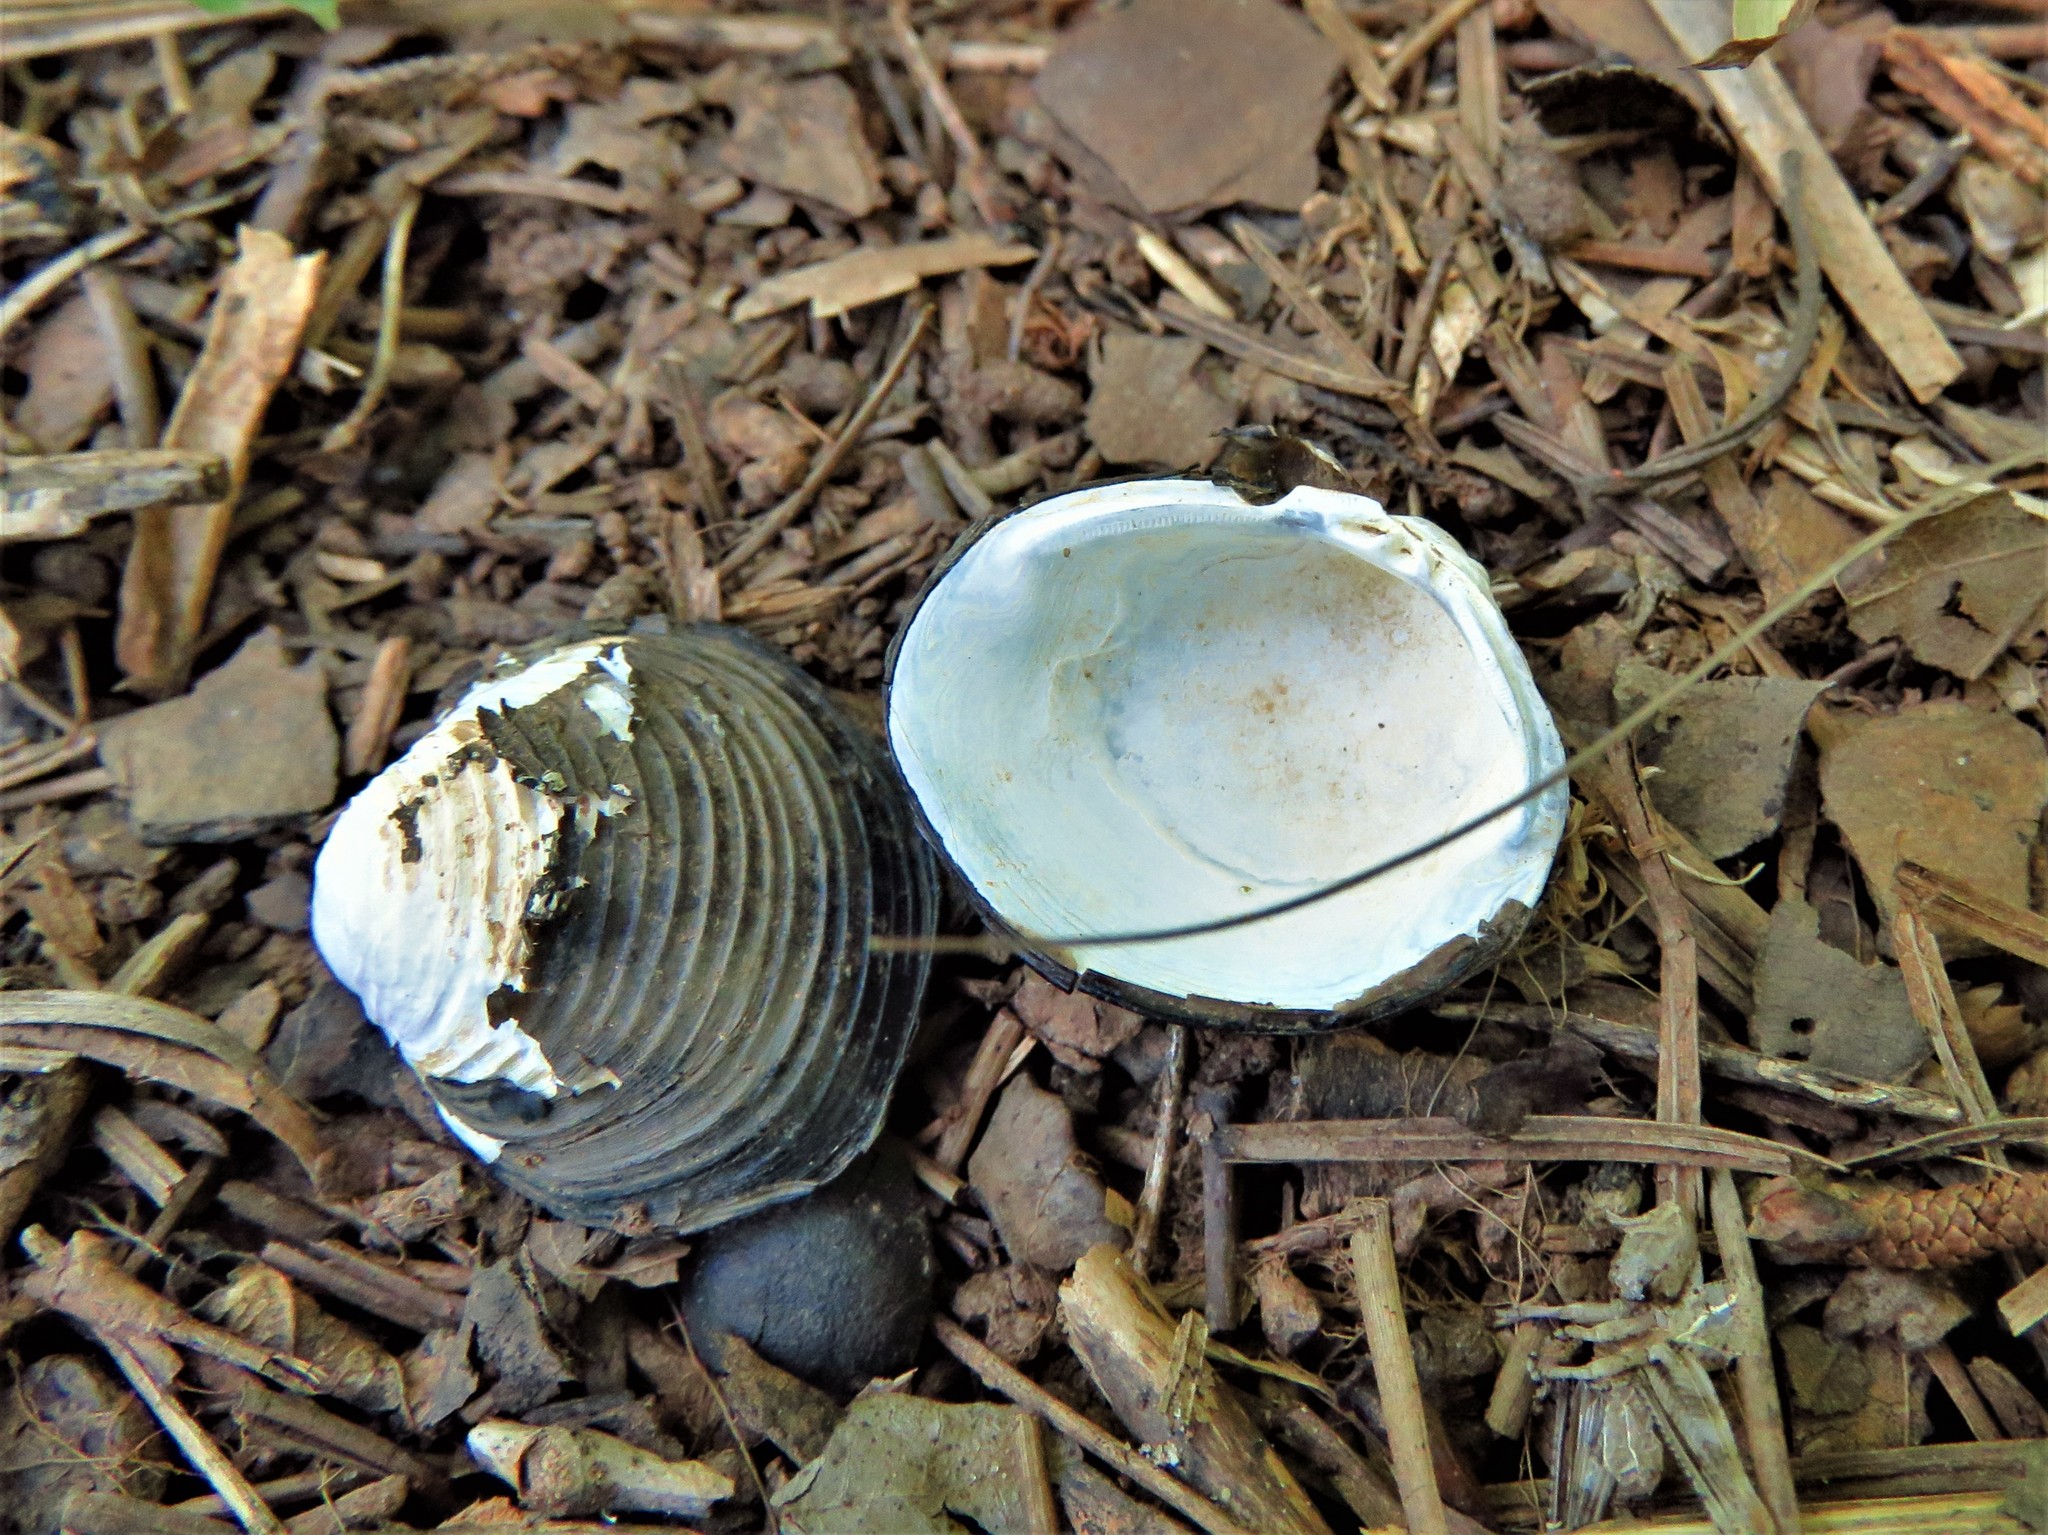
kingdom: Animalia
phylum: Mollusca
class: Bivalvia
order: Venerida
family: Cyrenidae
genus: Corbicula
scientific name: Corbicula fluminea
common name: Asian clam
